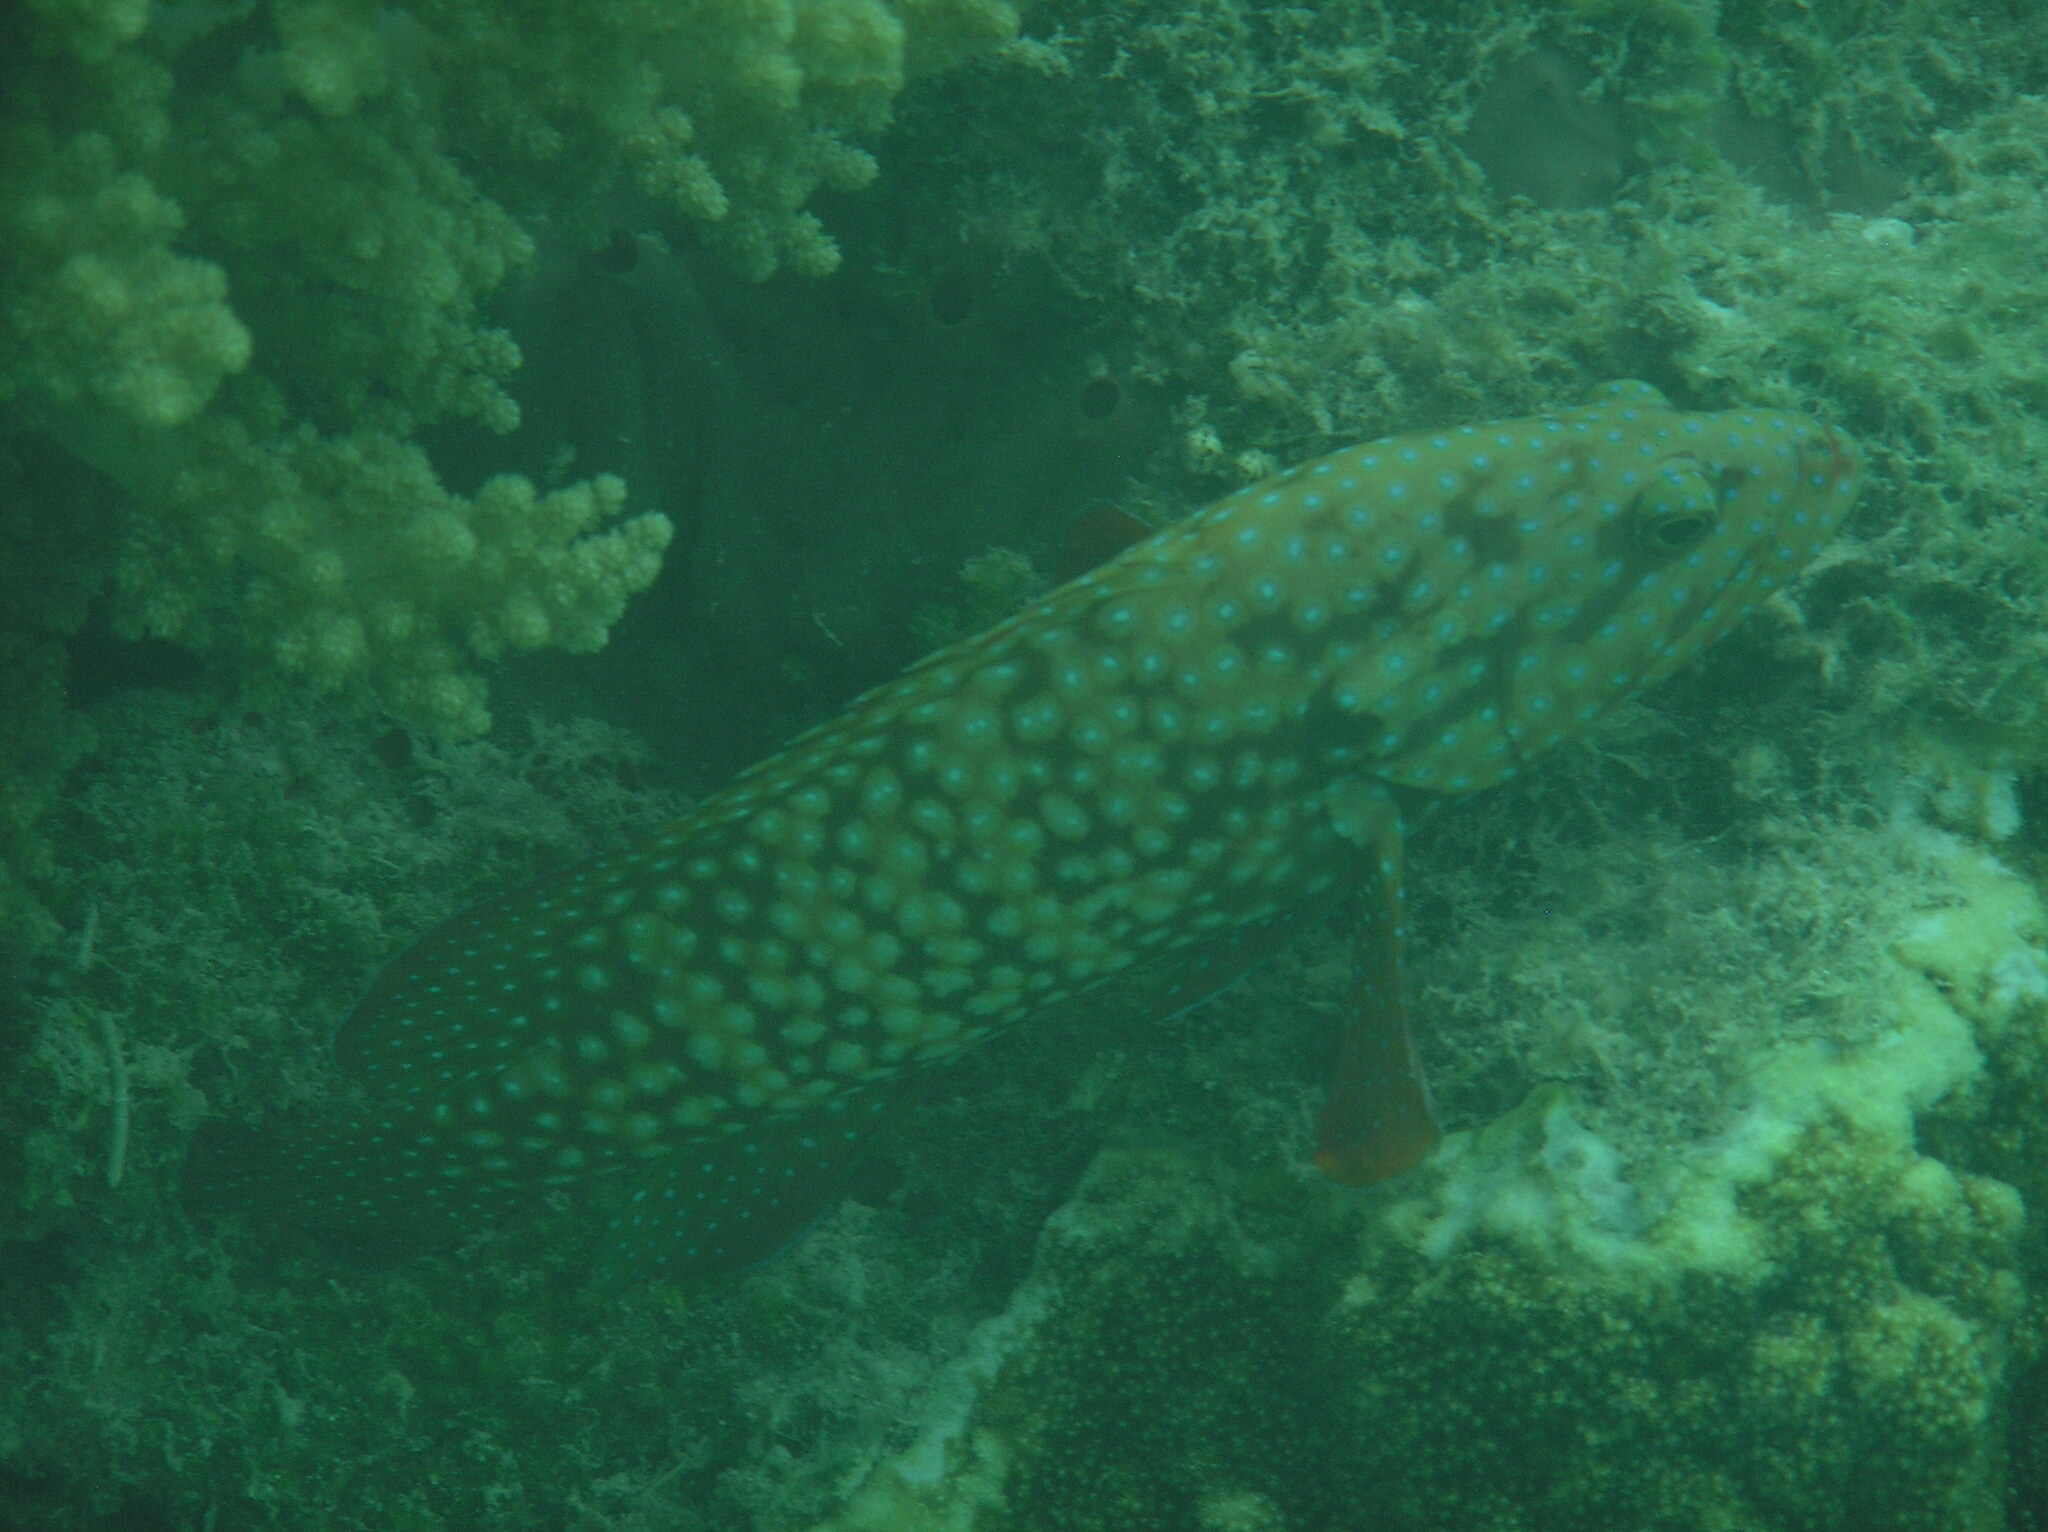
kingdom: Animalia
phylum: Chordata
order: Perciformes
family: Serranidae
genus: Cephalopholis
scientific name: Cephalopholis cyanostigma
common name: Bluespotted hind
